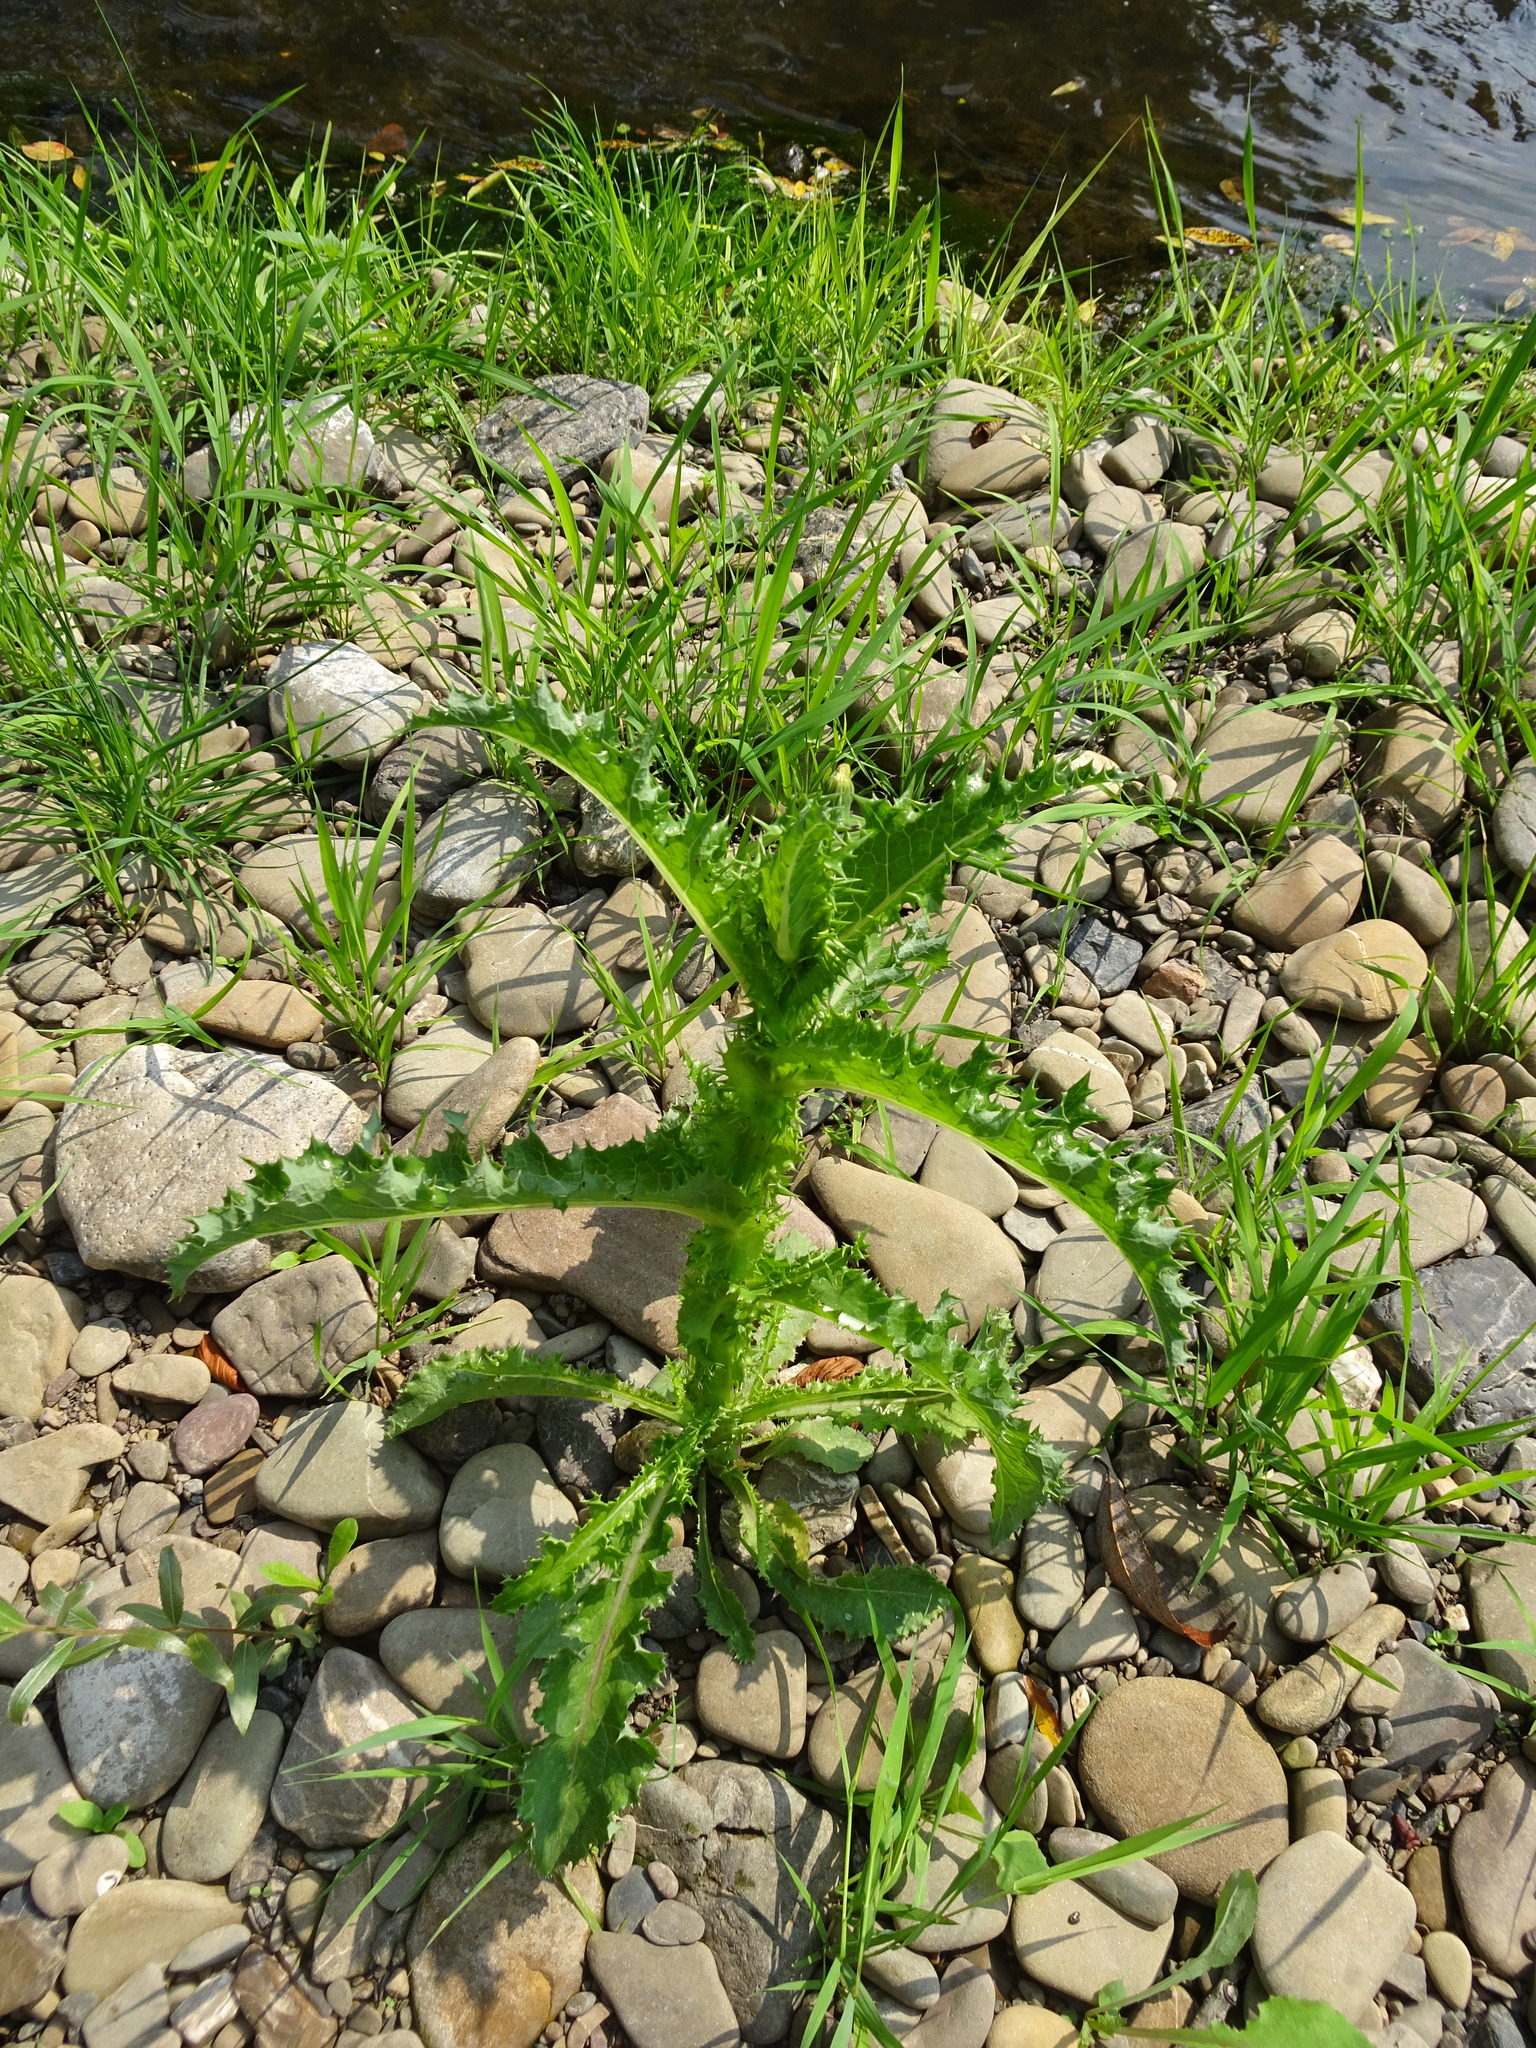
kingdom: Plantae
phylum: Tracheophyta
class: Magnoliopsida
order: Asterales
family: Asteraceae
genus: Sonchus
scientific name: Sonchus asper
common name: Prickly sow-thistle
